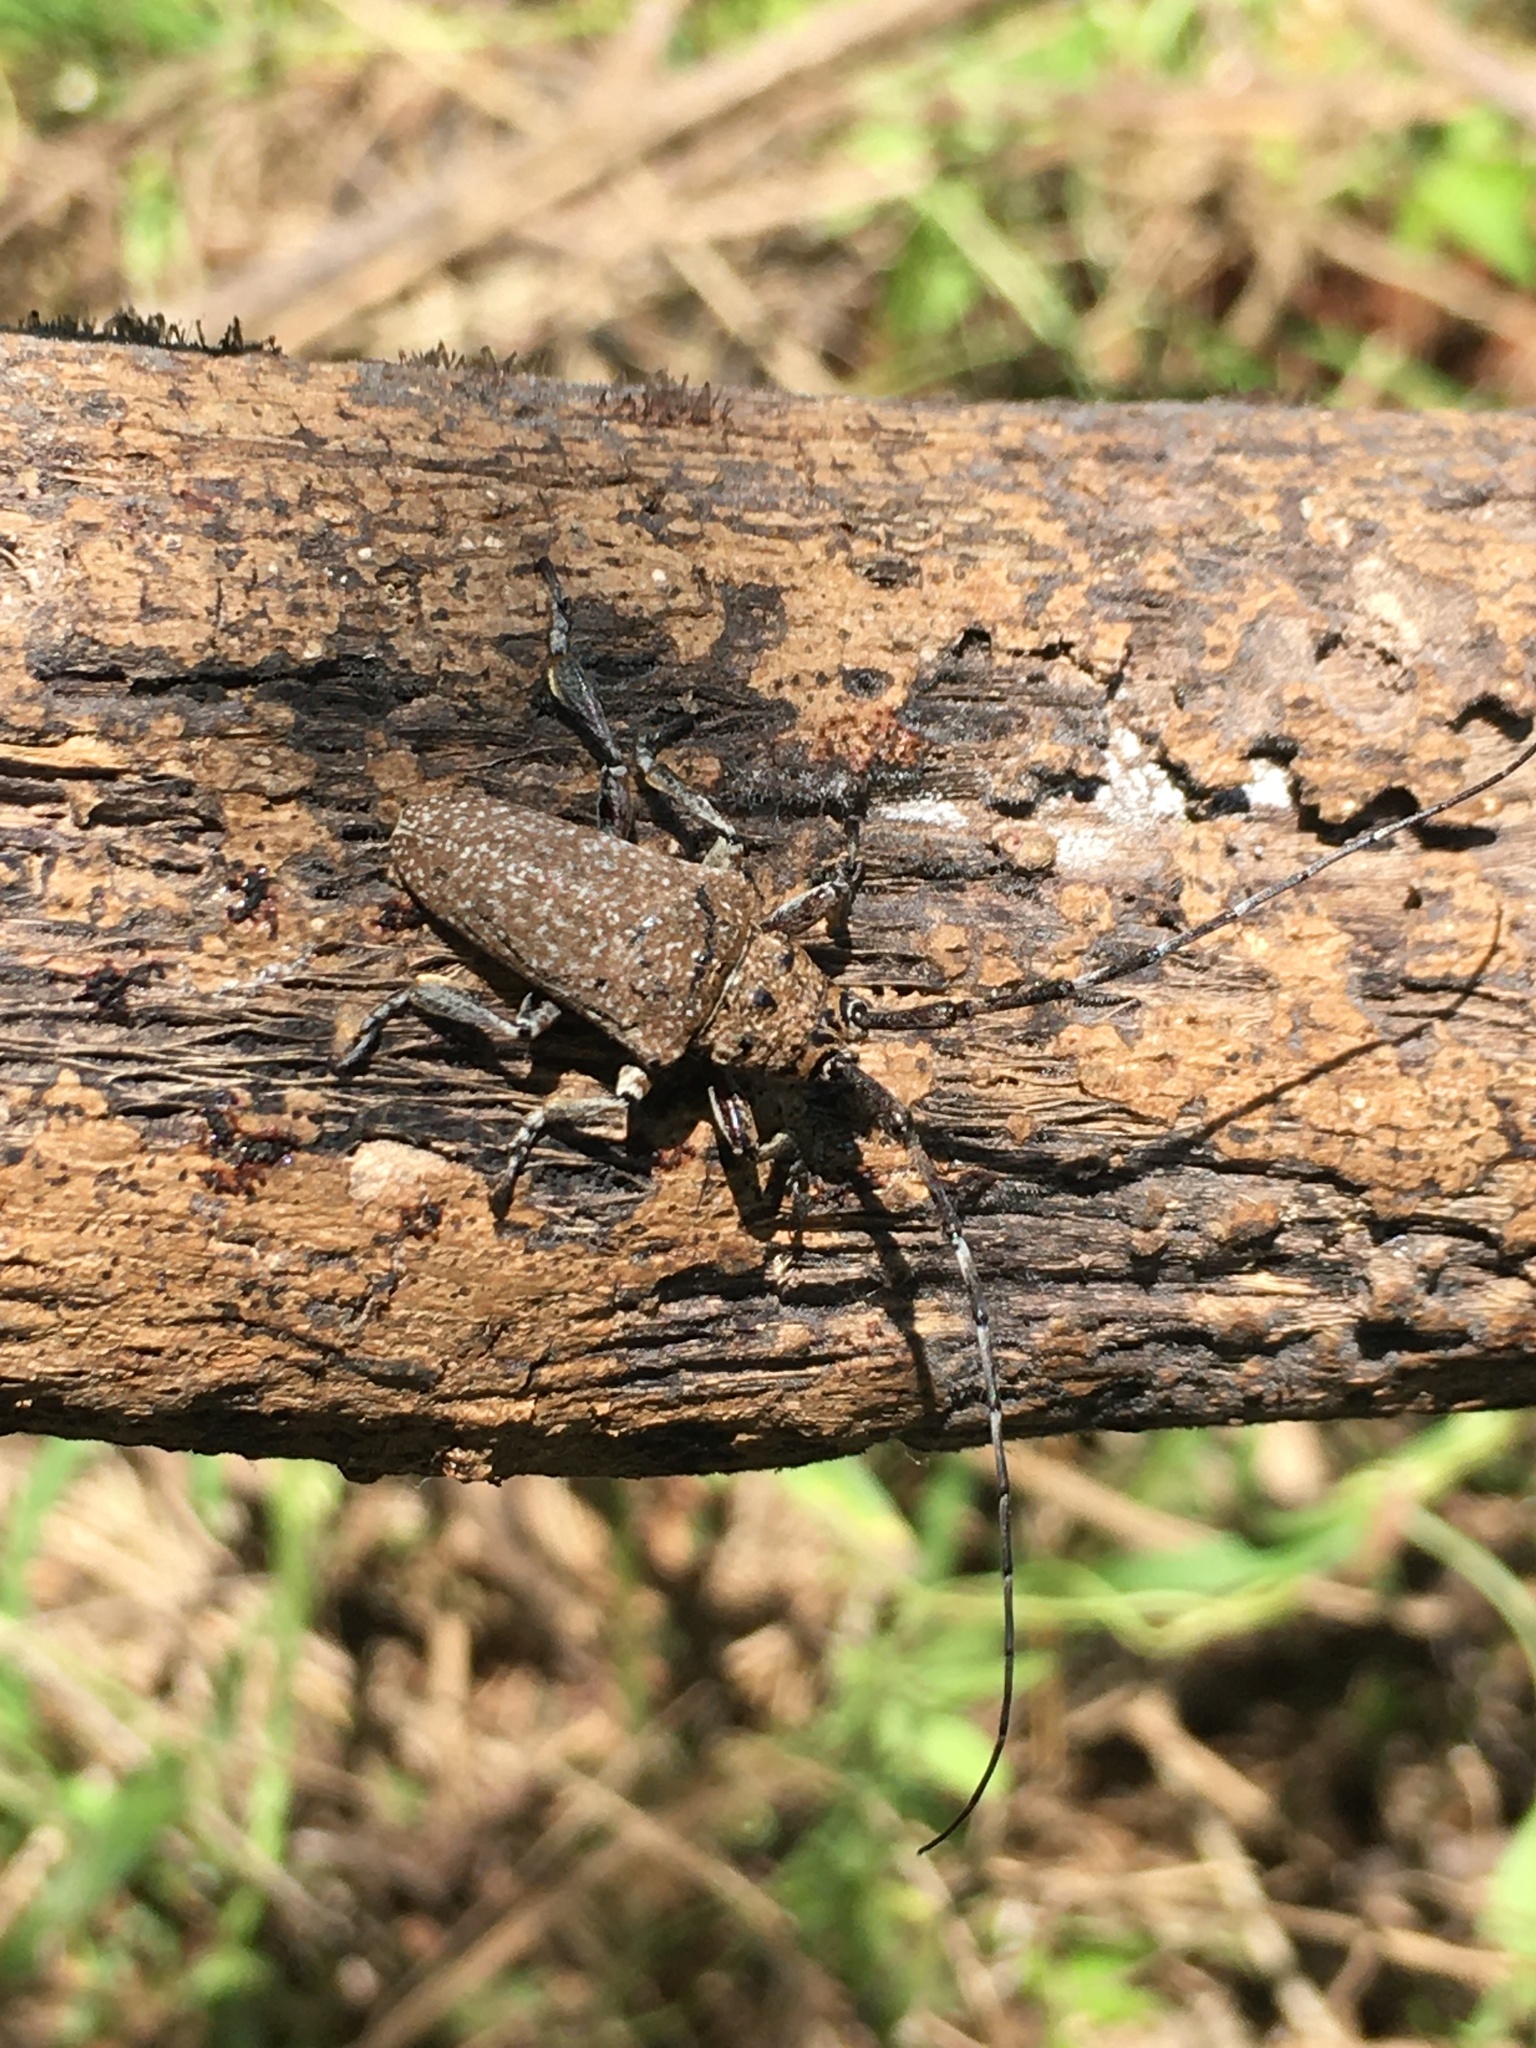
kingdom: Animalia
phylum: Arthropoda
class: Insecta
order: Coleoptera
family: Cerambycidae
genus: Neodillonia
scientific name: Neodillonia albisparsa
